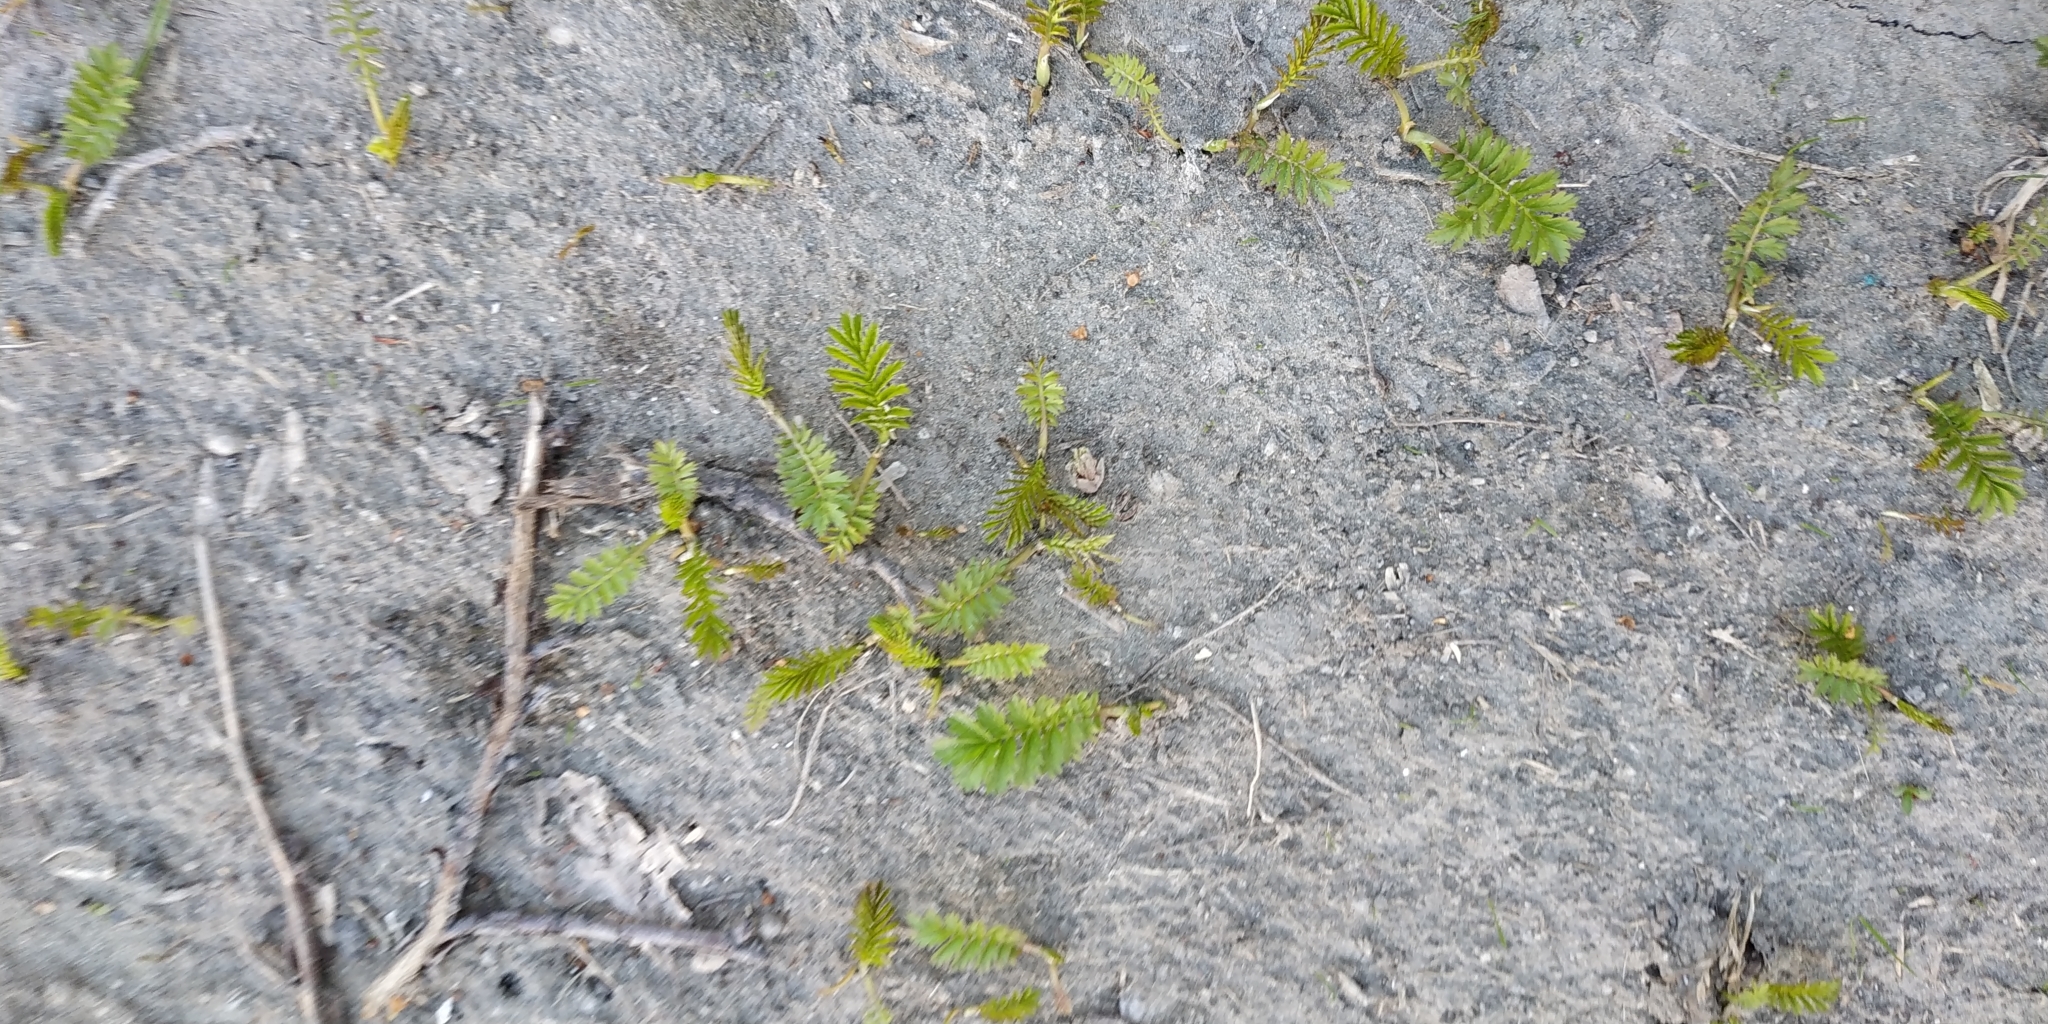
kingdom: Plantae
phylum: Tracheophyta
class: Magnoliopsida
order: Rosales
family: Rosaceae
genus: Argentina
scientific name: Argentina anserina
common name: Common silverweed
